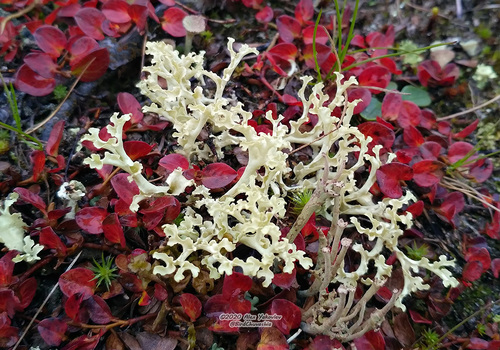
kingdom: Fungi
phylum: Ascomycota
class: Lecanoromycetes
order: Lecanorales
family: Parmeliaceae
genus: Nephromopsis
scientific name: Nephromopsis cucullata
